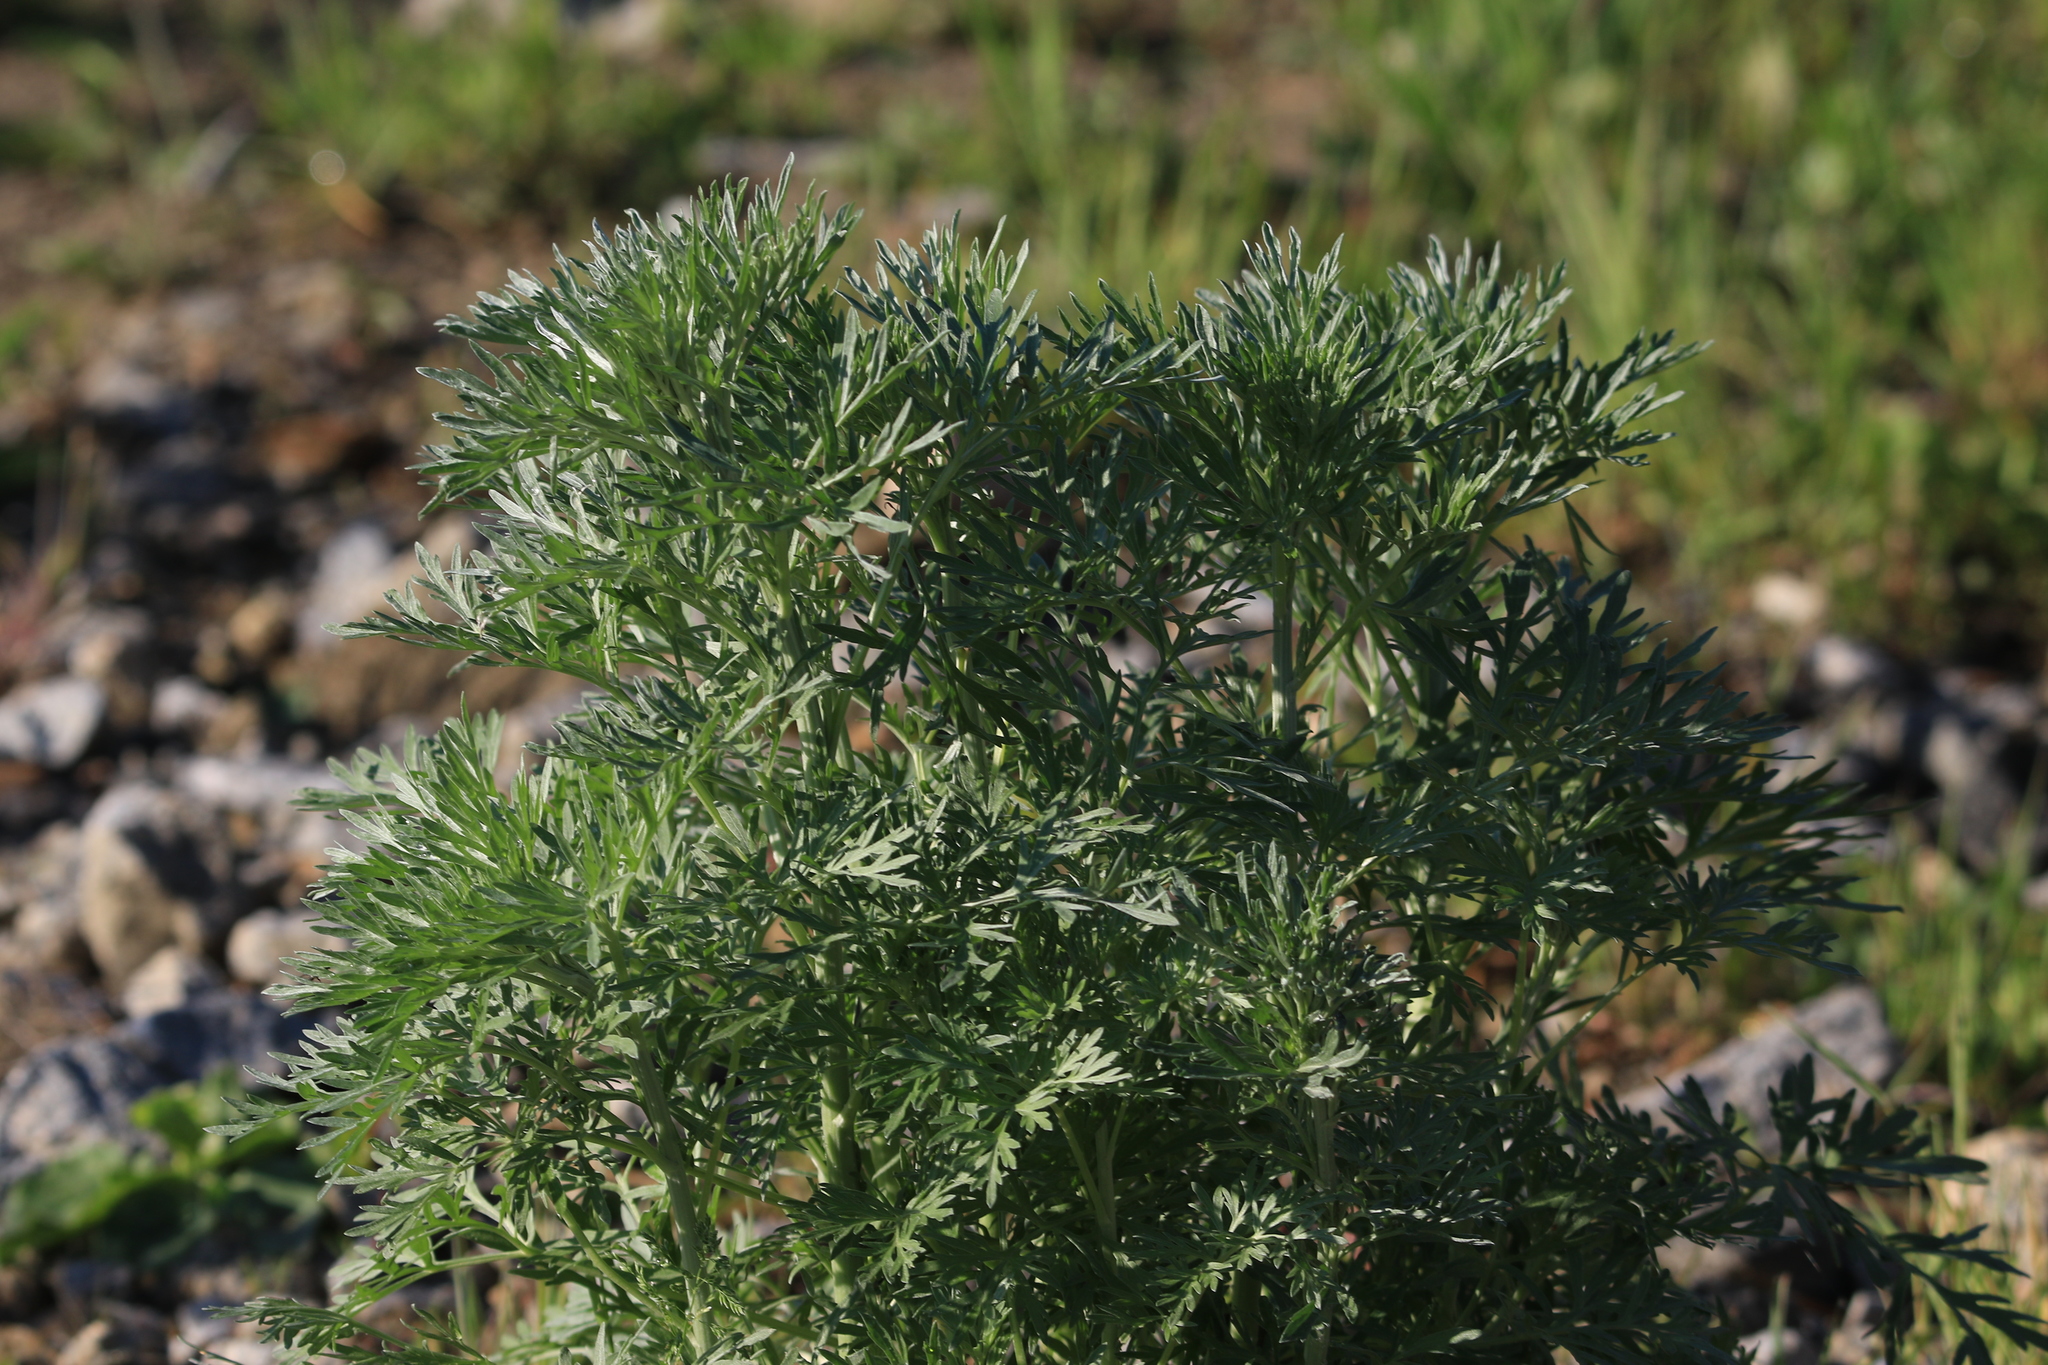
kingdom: Plantae
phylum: Tracheophyta
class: Magnoliopsida
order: Asterales
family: Asteraceae
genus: Artemisia
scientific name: Artemisia sieversiana
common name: Sieversian wormwood
